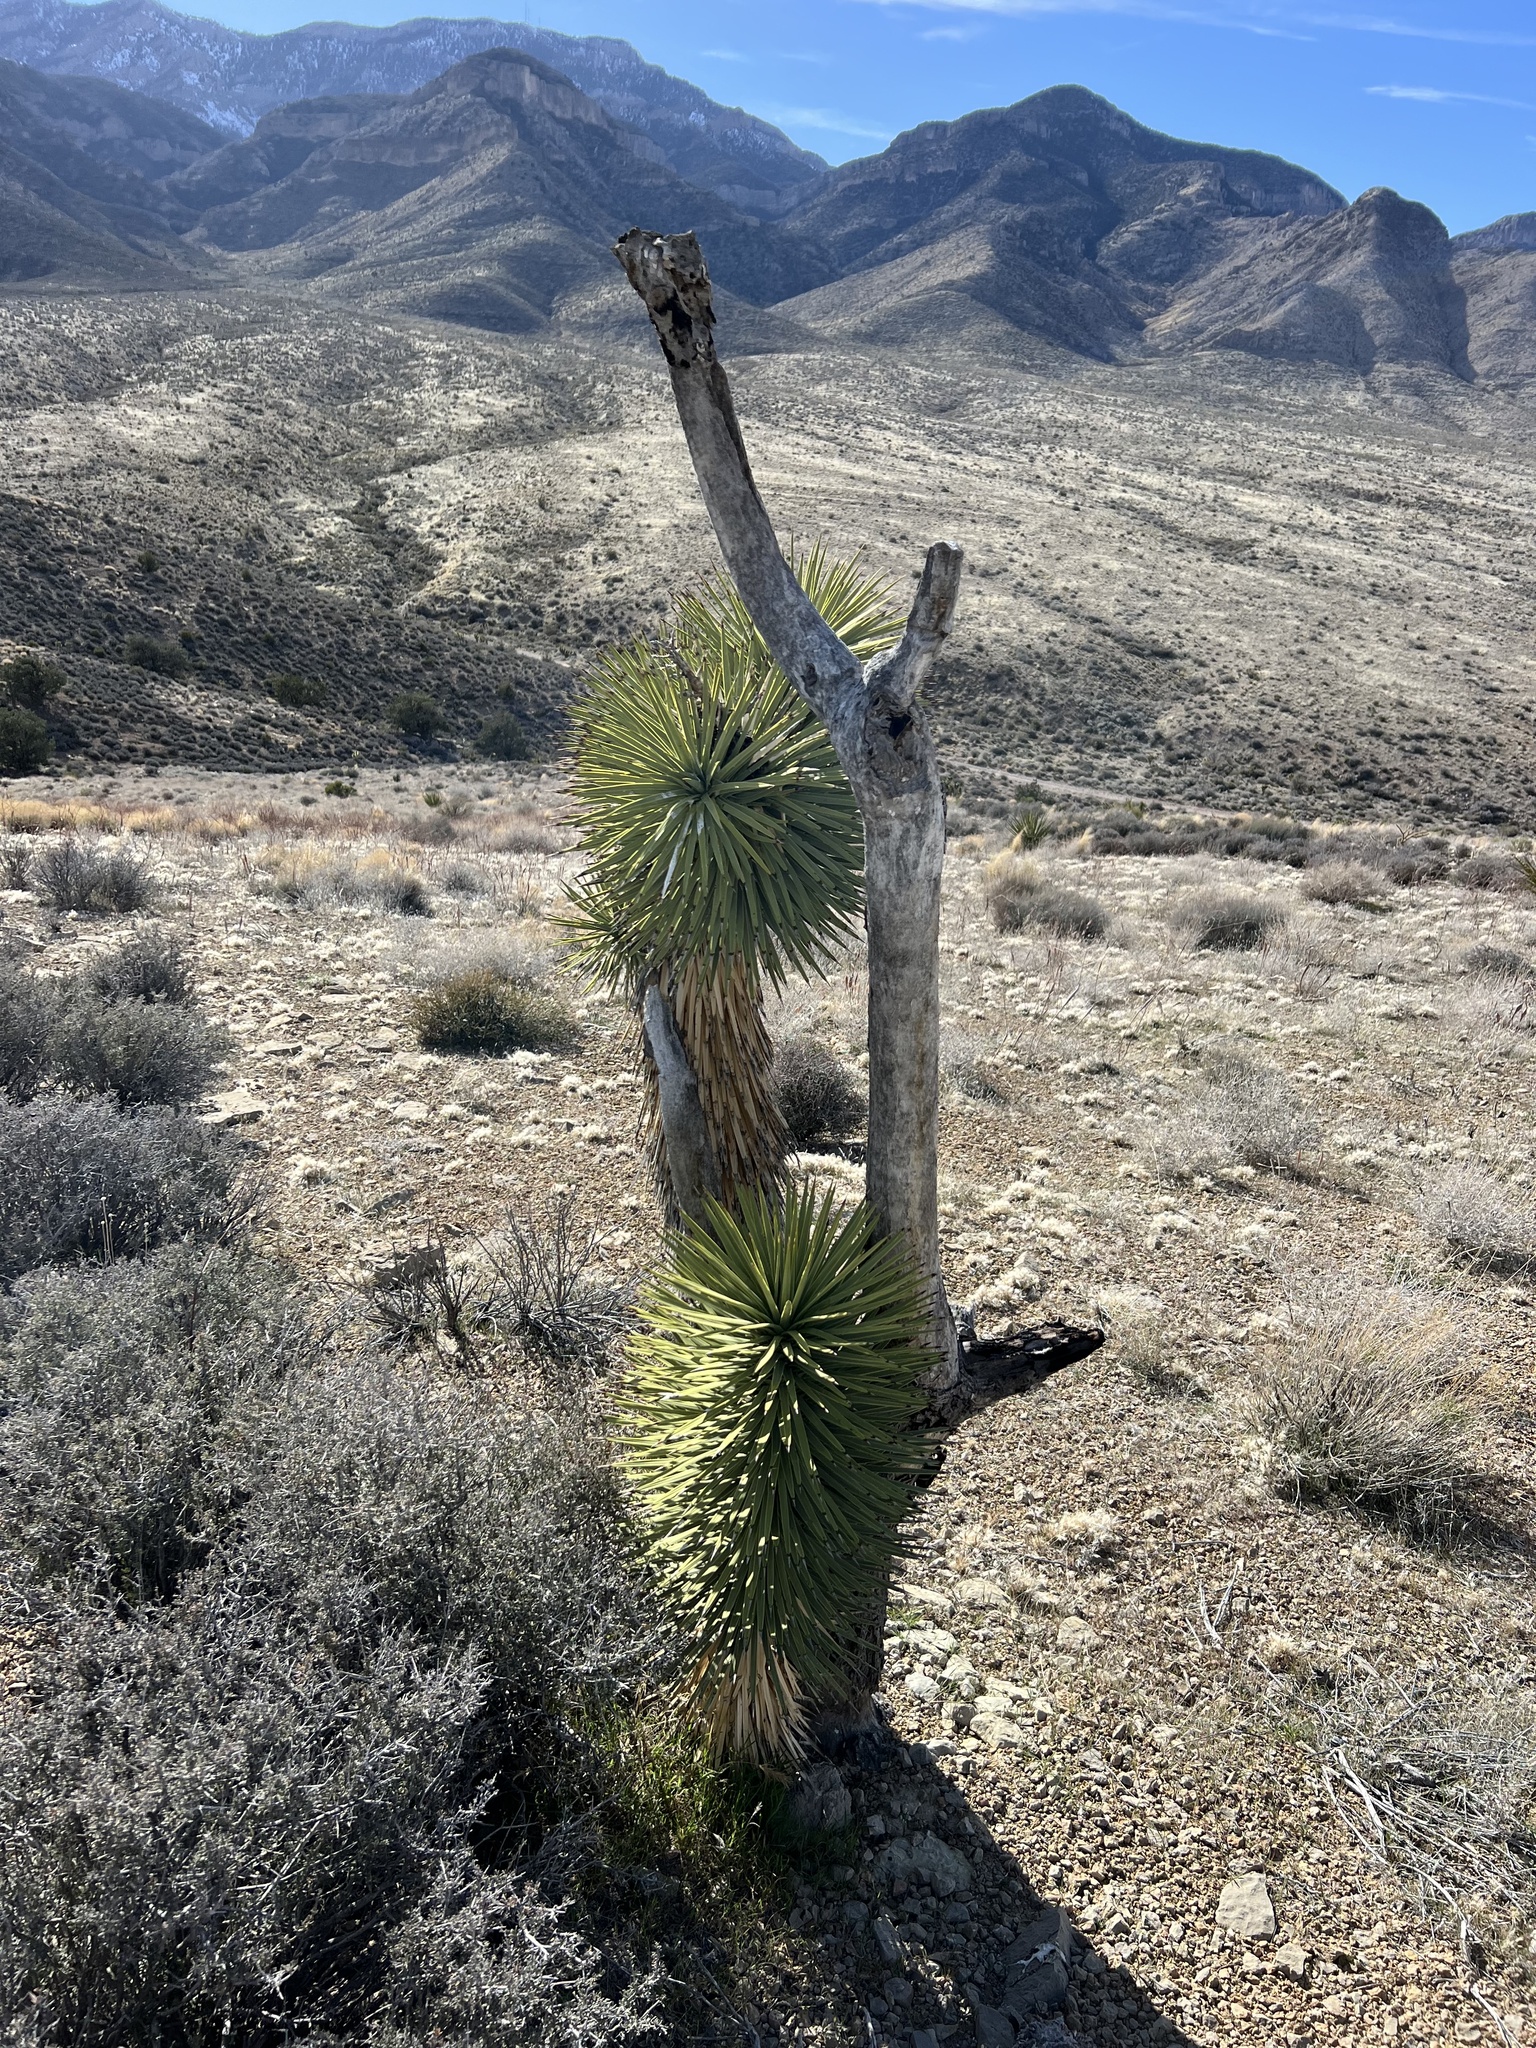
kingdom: Plantae
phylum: Tracheophyta
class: Liliopsida
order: Asparagales
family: Asparagaceae
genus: Yucca
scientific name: Yucca brevifolia
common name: Joshua tree
